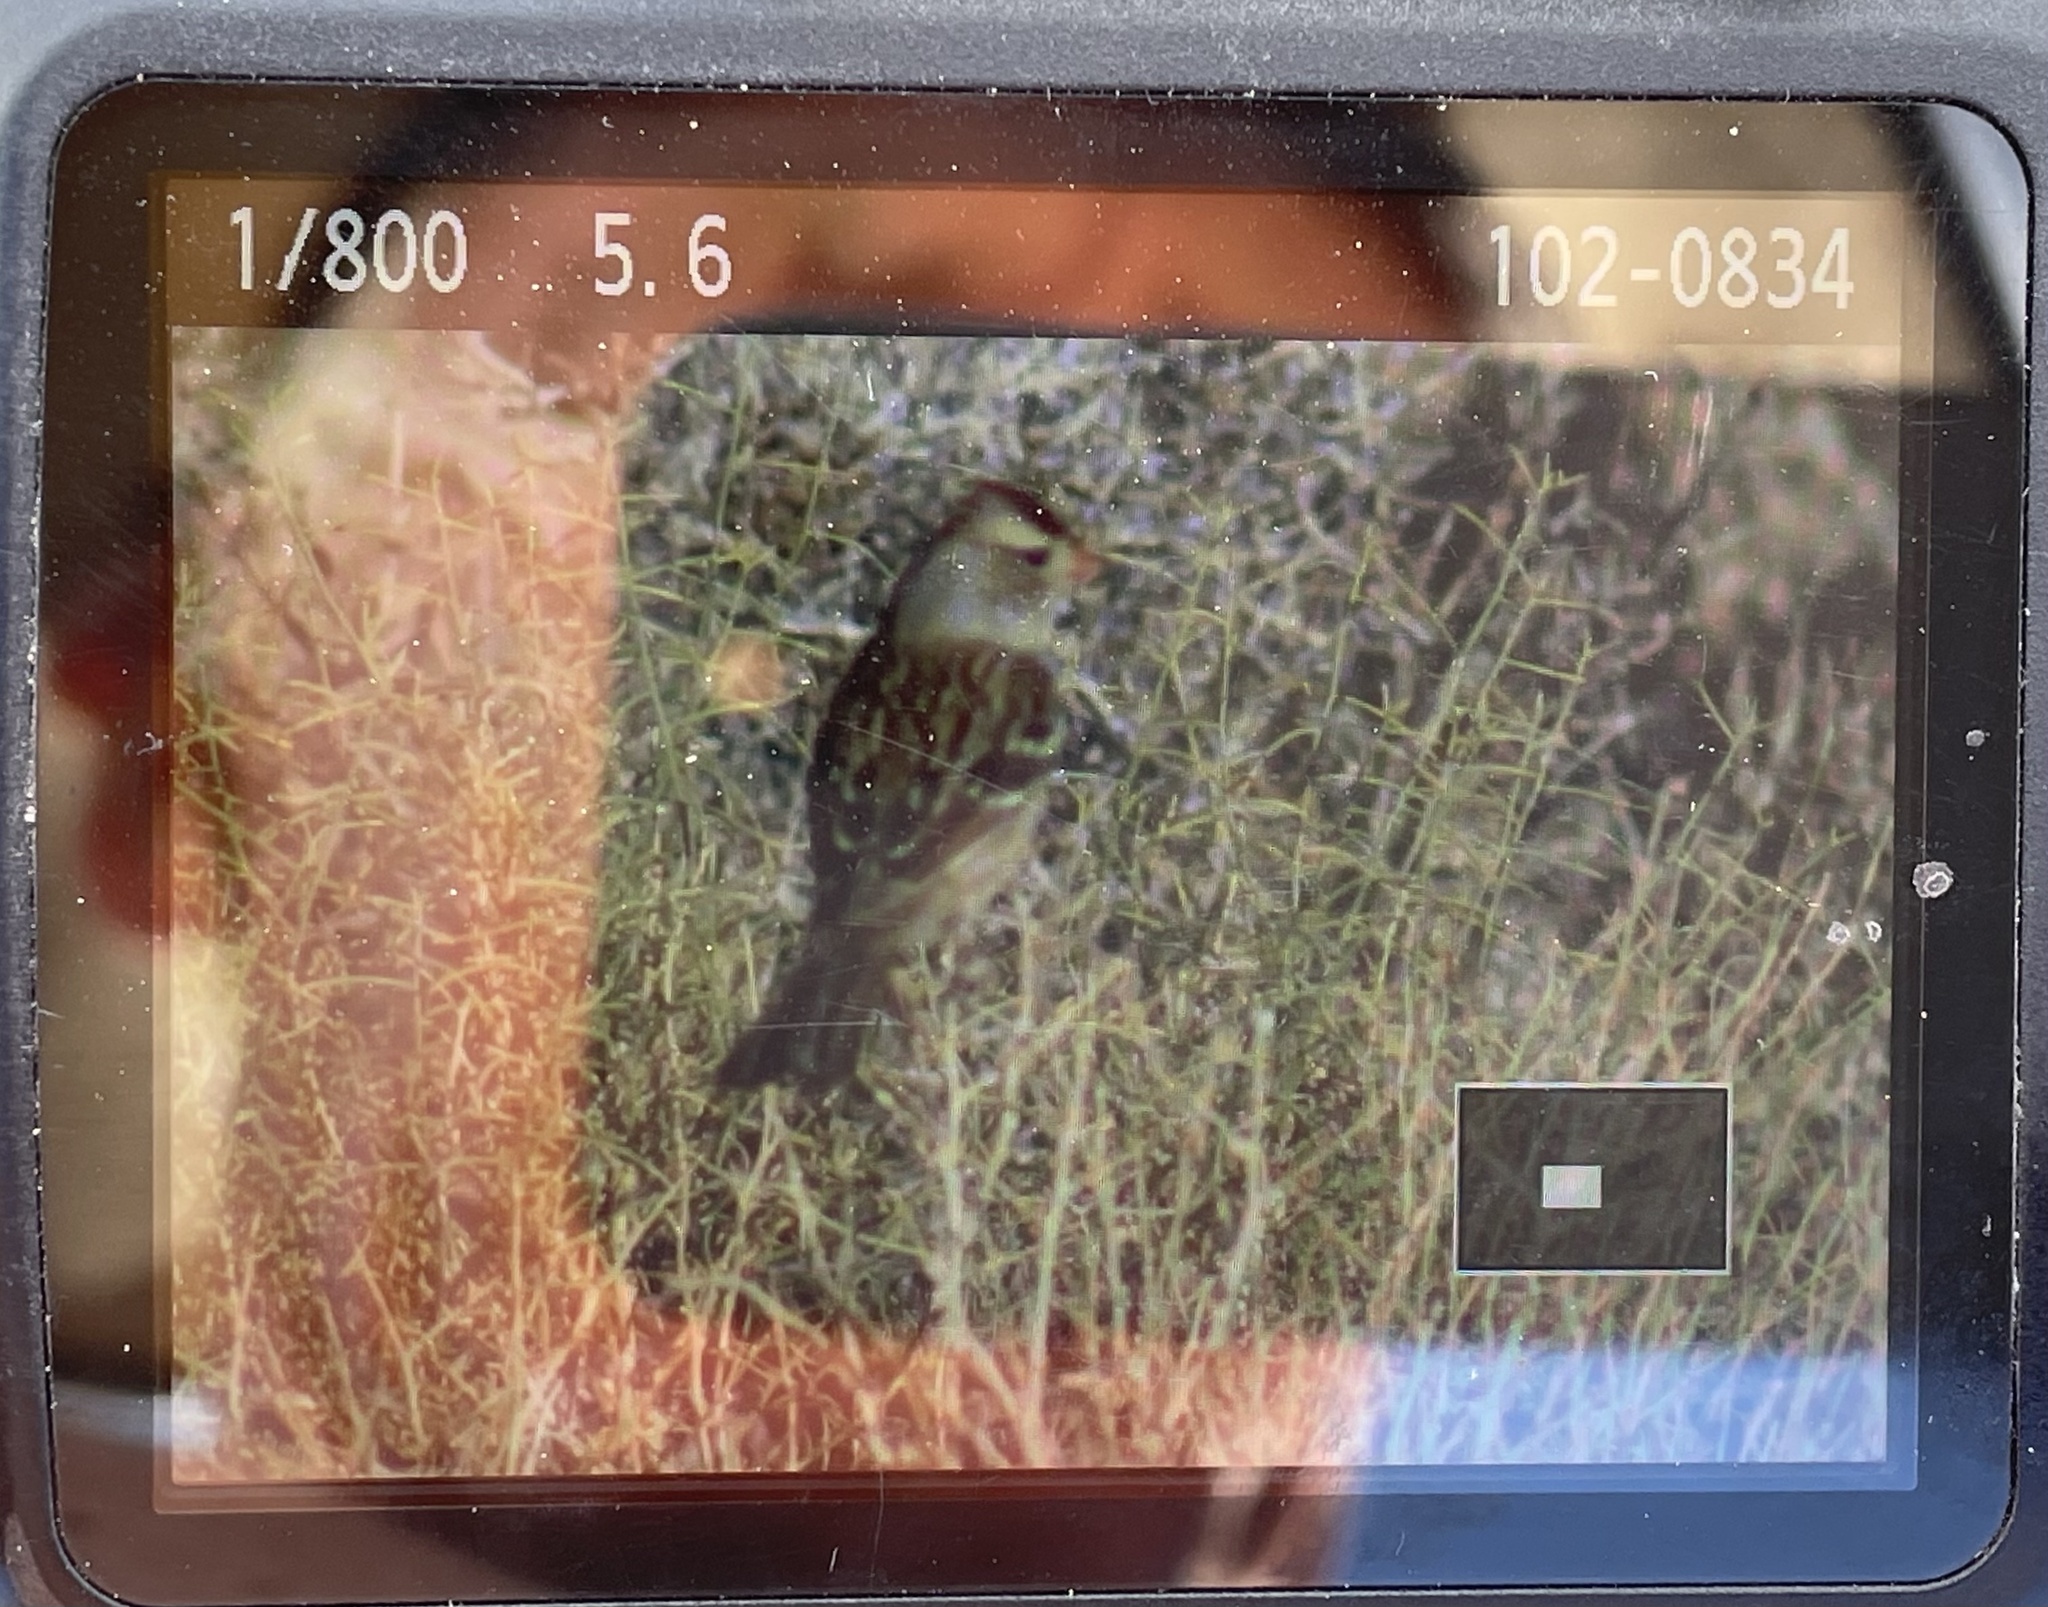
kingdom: Animalia
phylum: Chordata
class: Aves
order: Passeriformes
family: Passerellidae
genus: Zonotrichia
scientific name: Zonotrichia leucophrys
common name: White-crowned sparrow
